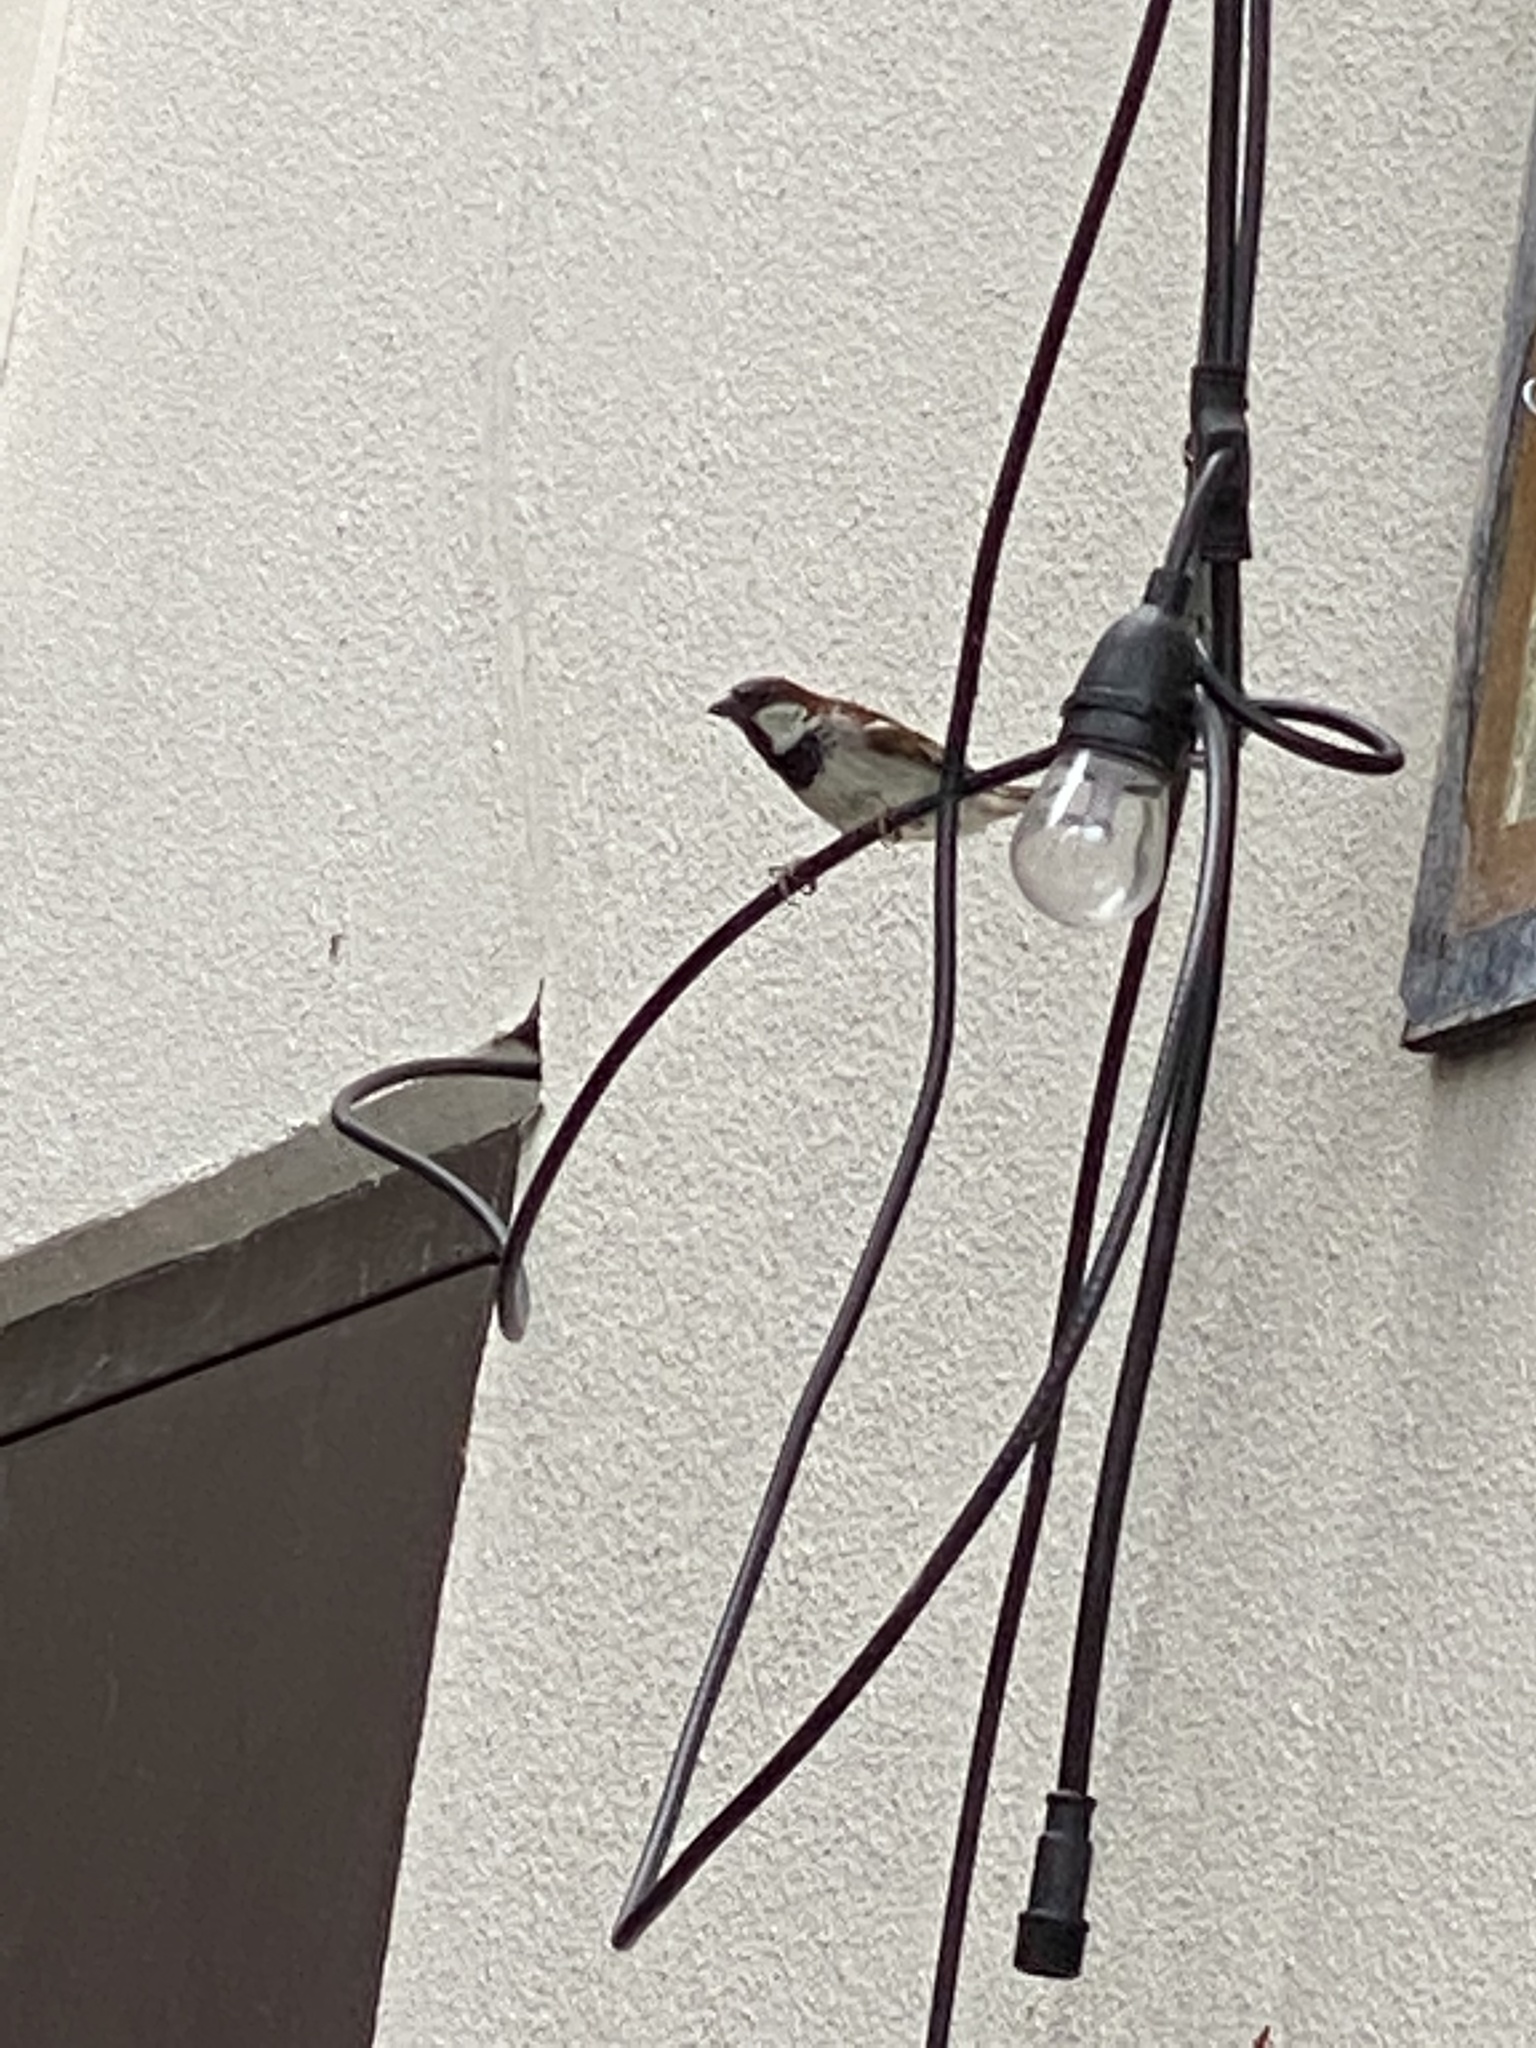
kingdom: Animalia
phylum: Chordata
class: Aves
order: Passeriformes
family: Passeridae
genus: Passer
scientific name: Passer domesticus
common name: House sparrow
